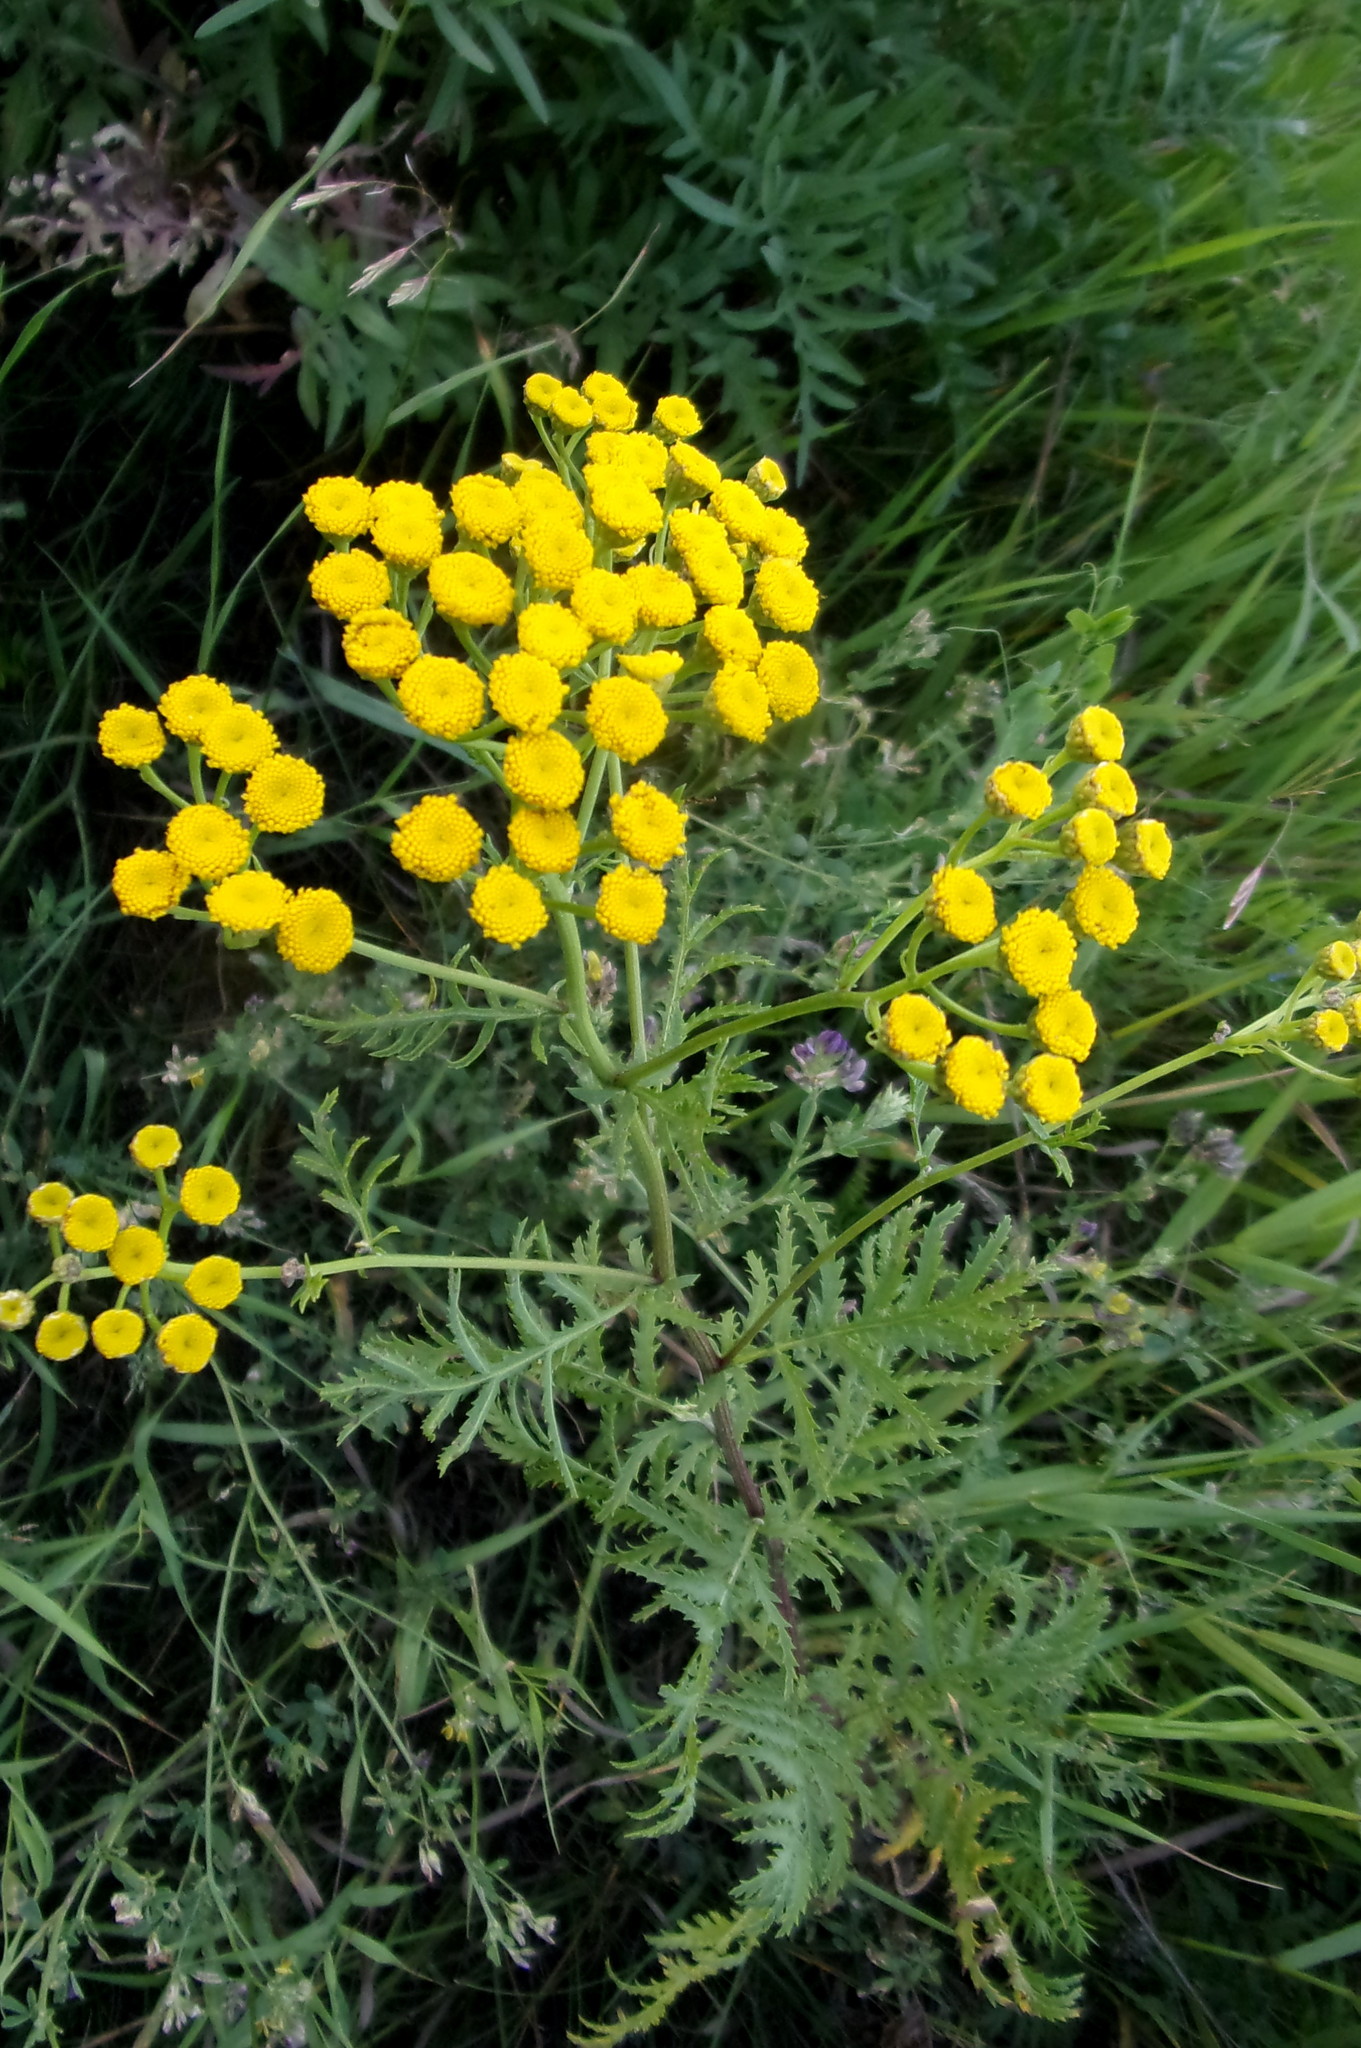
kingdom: Plantae
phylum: Tracheophyta
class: Magnoliopsida
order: Asterales
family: Asteraceae
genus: Tanacetum
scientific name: Tanacetum vulgare
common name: Common tansy
